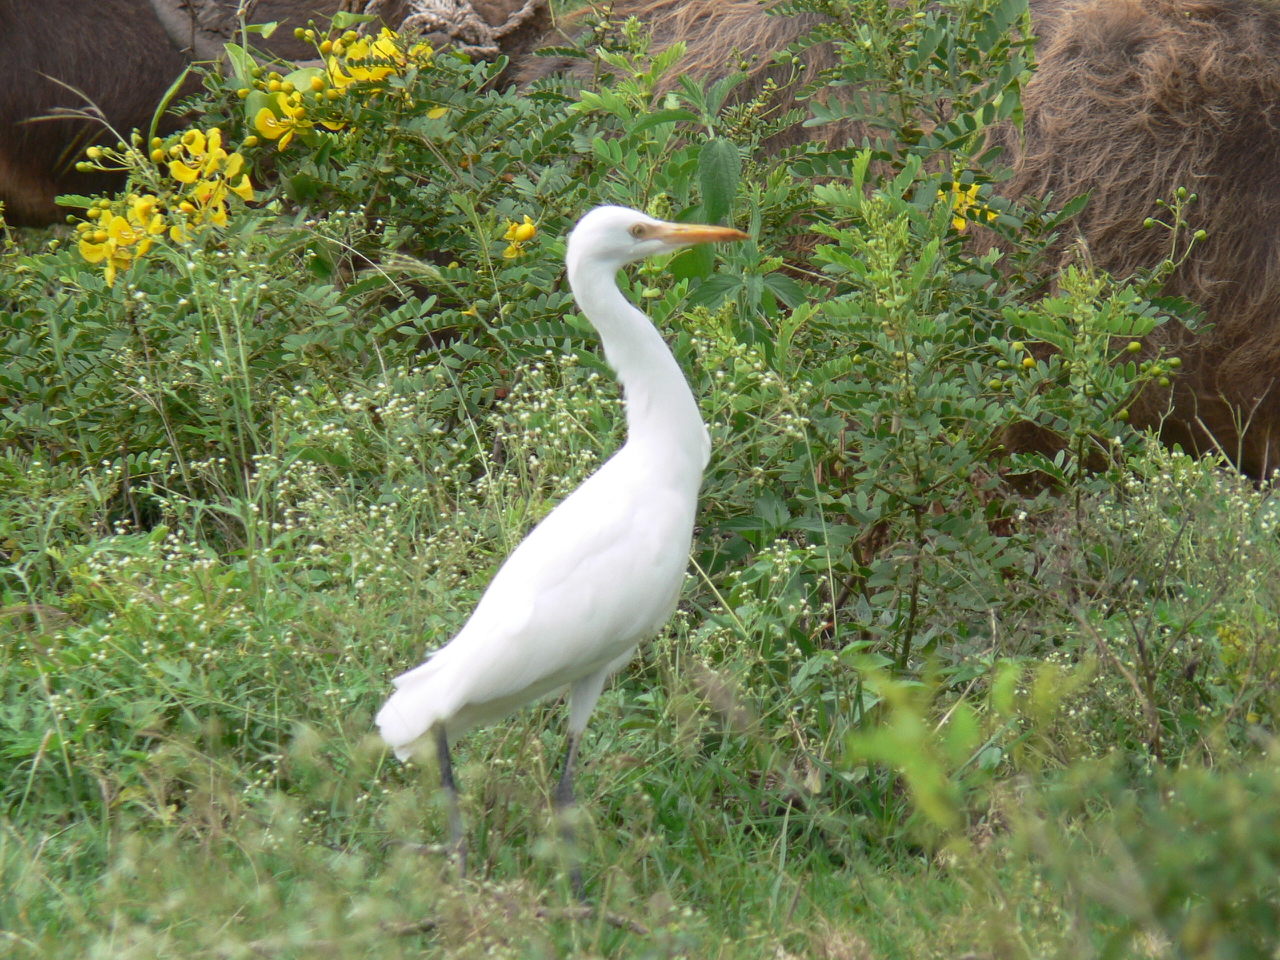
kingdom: Animalia
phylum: Chordata
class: Aves
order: Pelecaniformes
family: Ardeidae
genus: Bubulcus
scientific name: Bubulcus coromandus
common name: Eastern cattle egret
